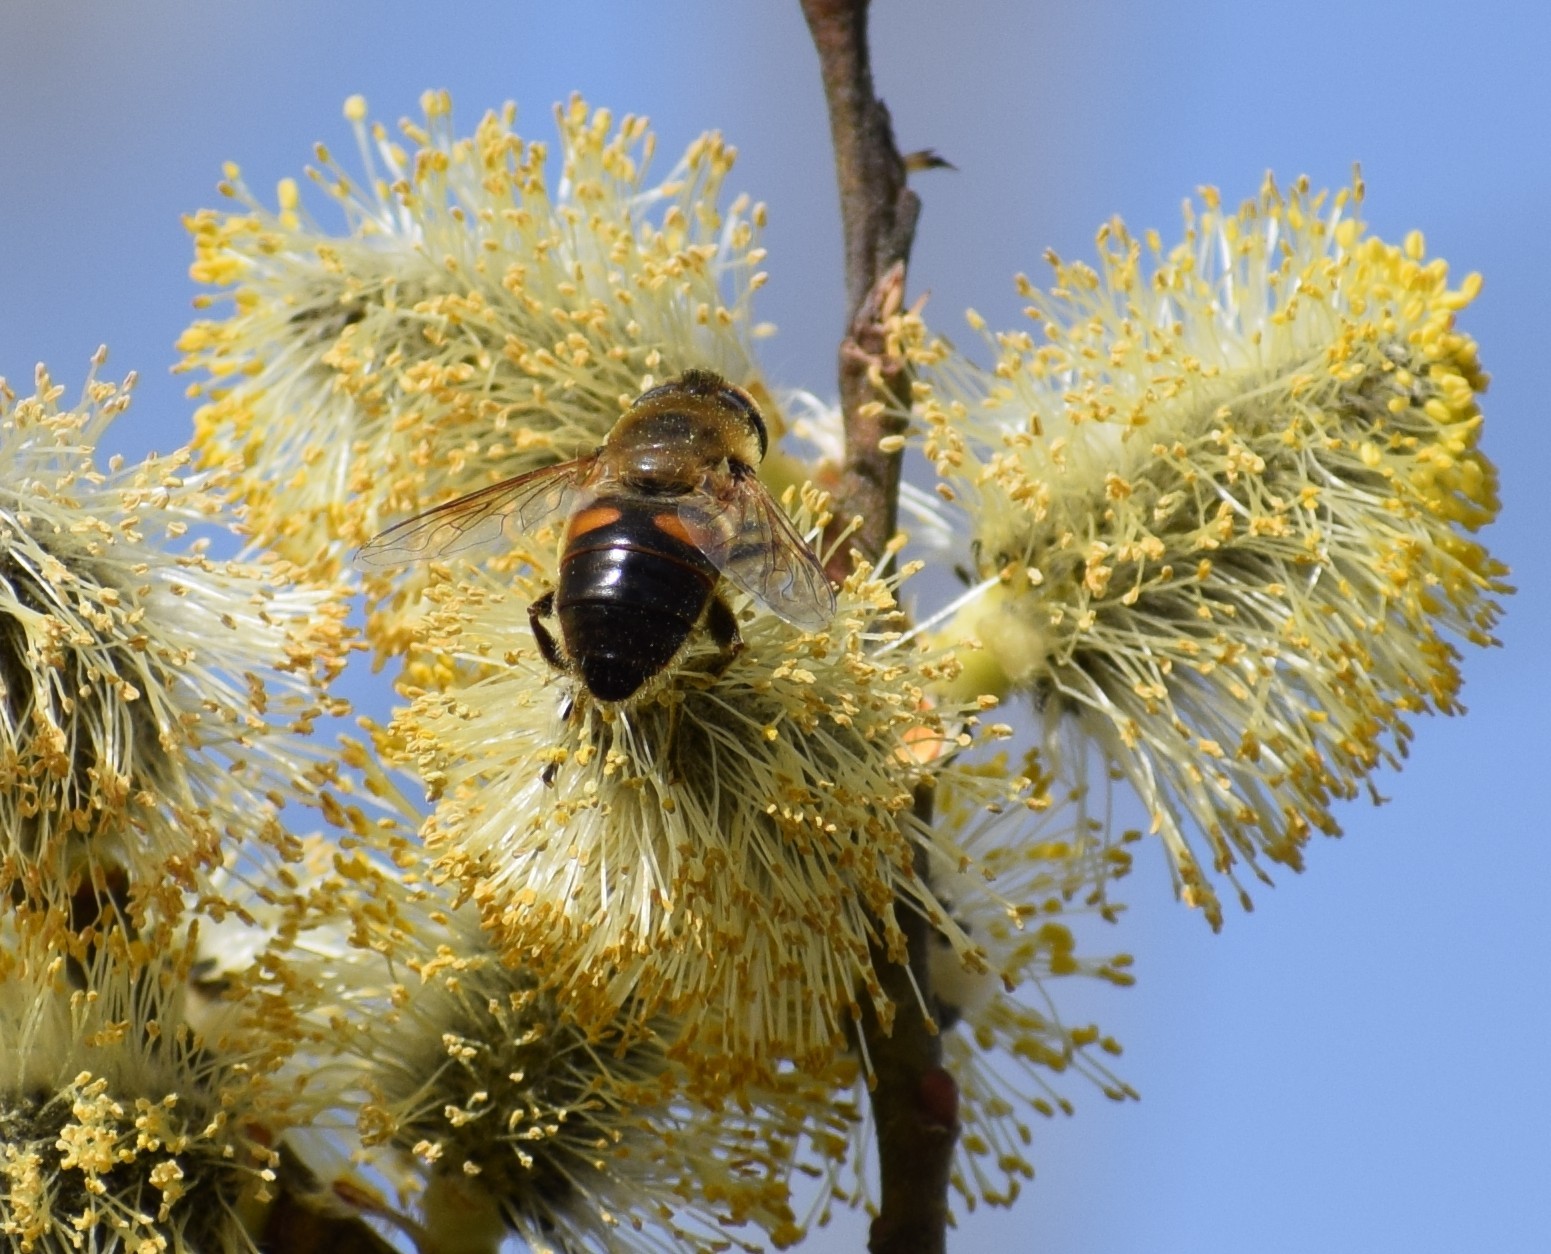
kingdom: Animalia
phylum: Arthropoda
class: Insecta
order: Diptera
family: Syrphidae
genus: Eristalis
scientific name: Eristalis tenax
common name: Drone fly
